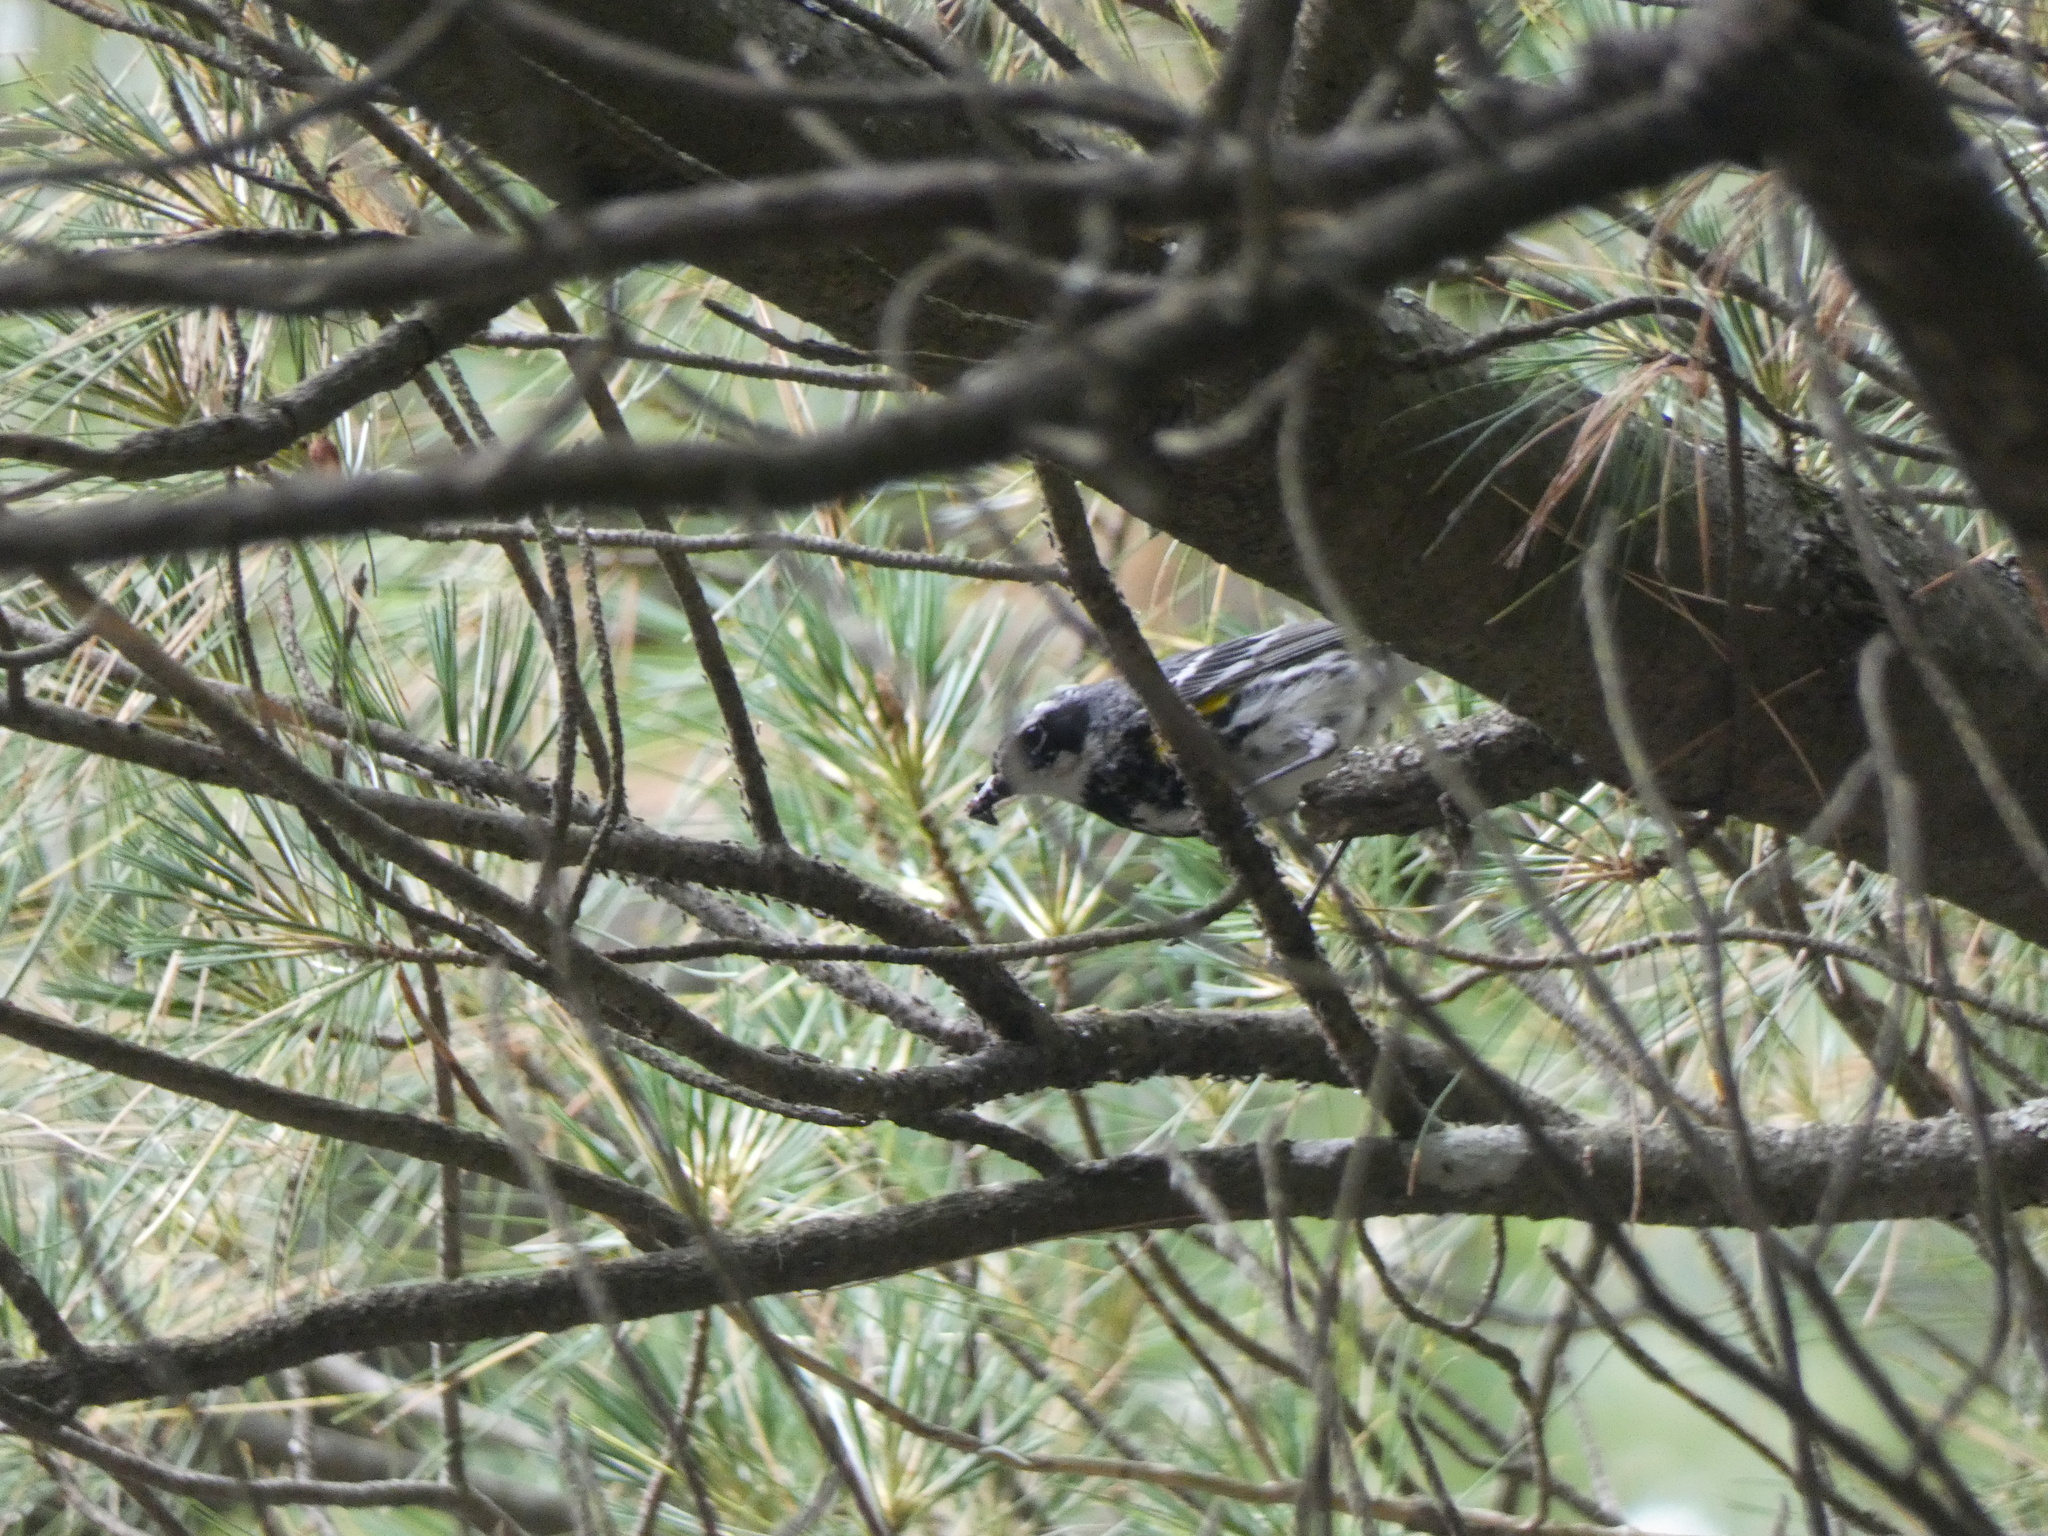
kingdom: Animalia
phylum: Chordata
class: Aves
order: Passeriformes
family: Parulidae
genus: Setophaga
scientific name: Setophaga coronata
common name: Myrtle warbler
